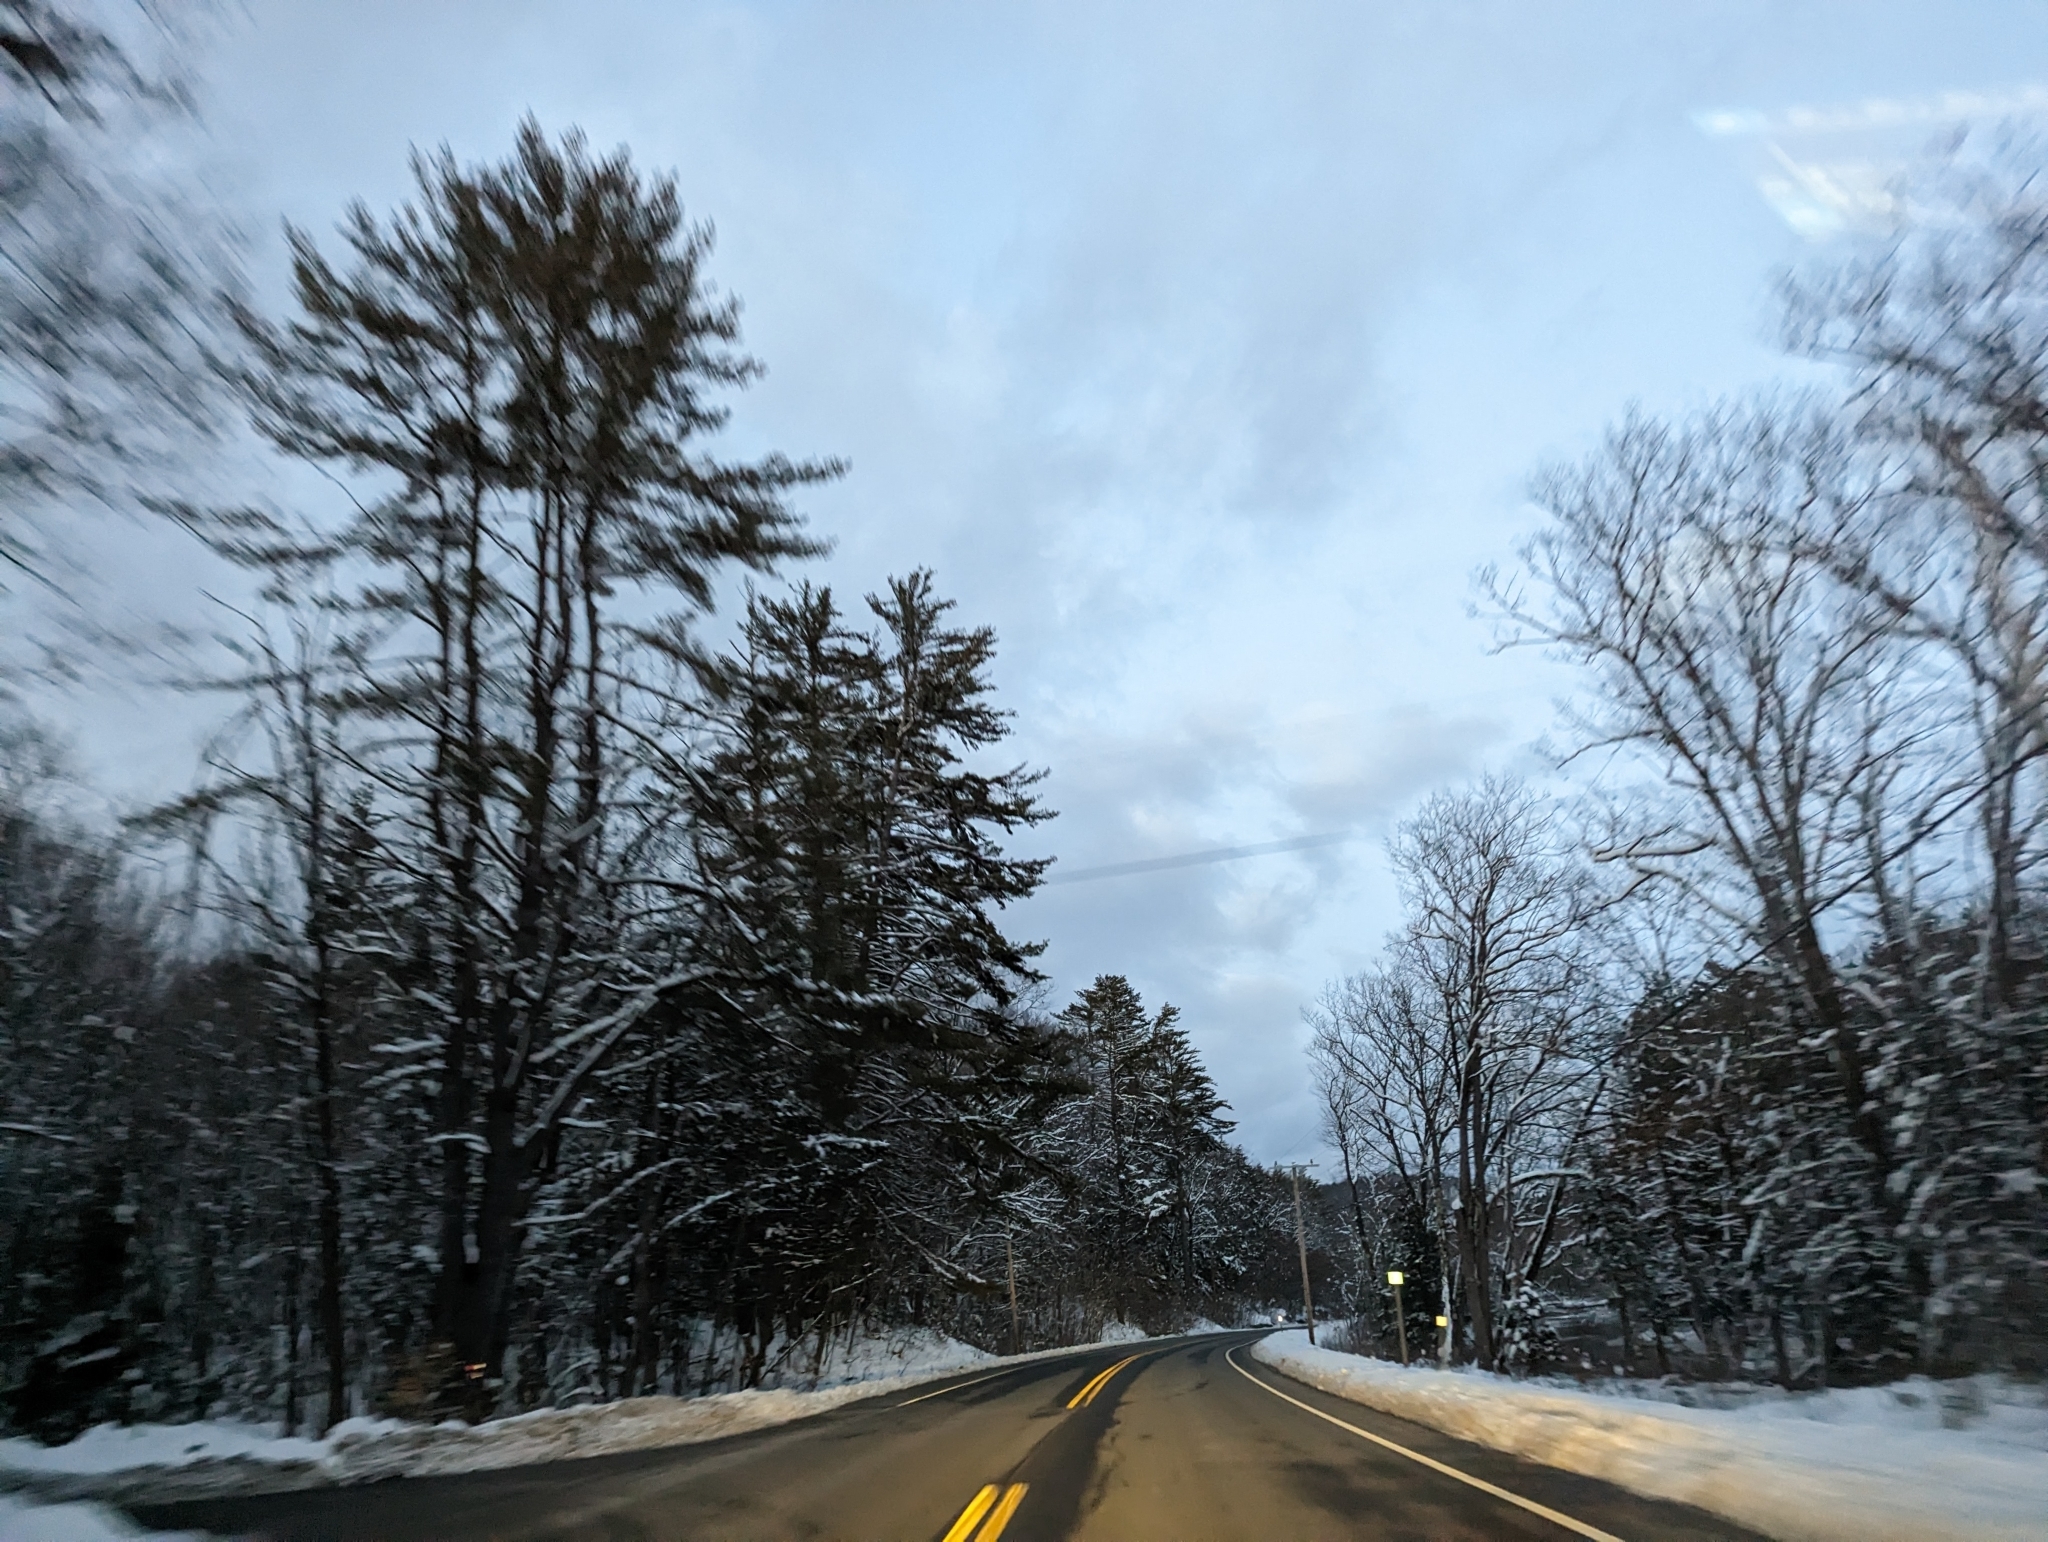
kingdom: Plantae
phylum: Tracheophyta
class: Pinopsida
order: Pinales
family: Pinaceae
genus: Pinus
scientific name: Pinus strobus
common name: Weymouth pine
